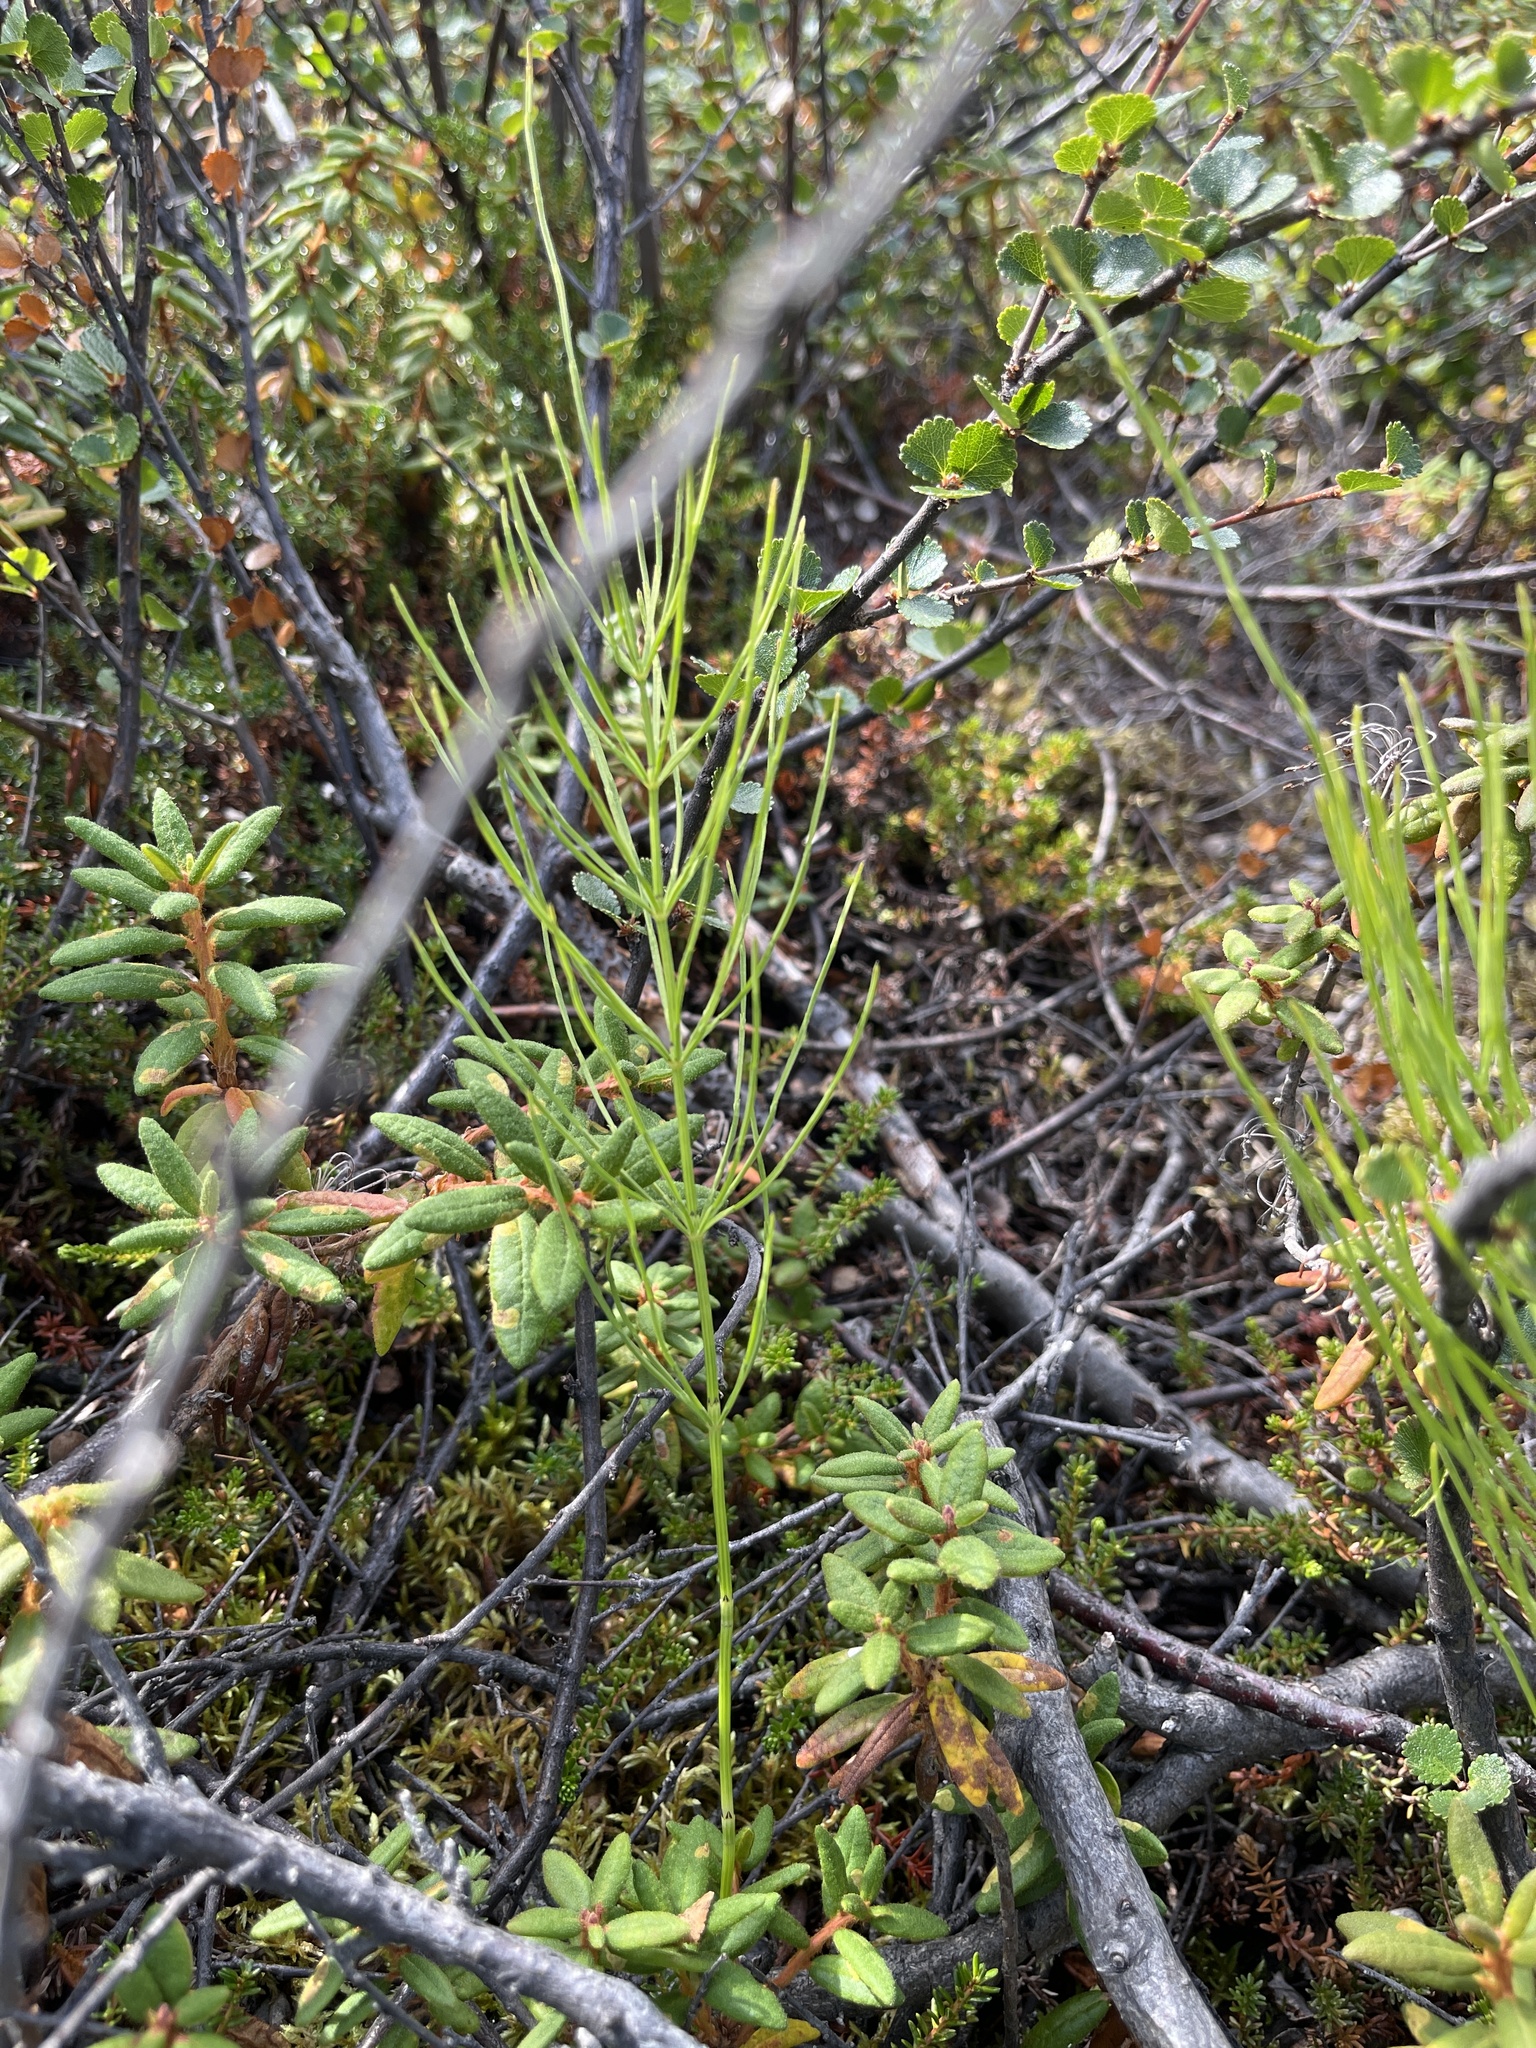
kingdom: Plantae
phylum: Tracheophyta
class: Polypodiopsida
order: Equisetales
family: Equisetaceae
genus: Equisetum
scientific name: Equisetum arvense
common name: Field horsetail
